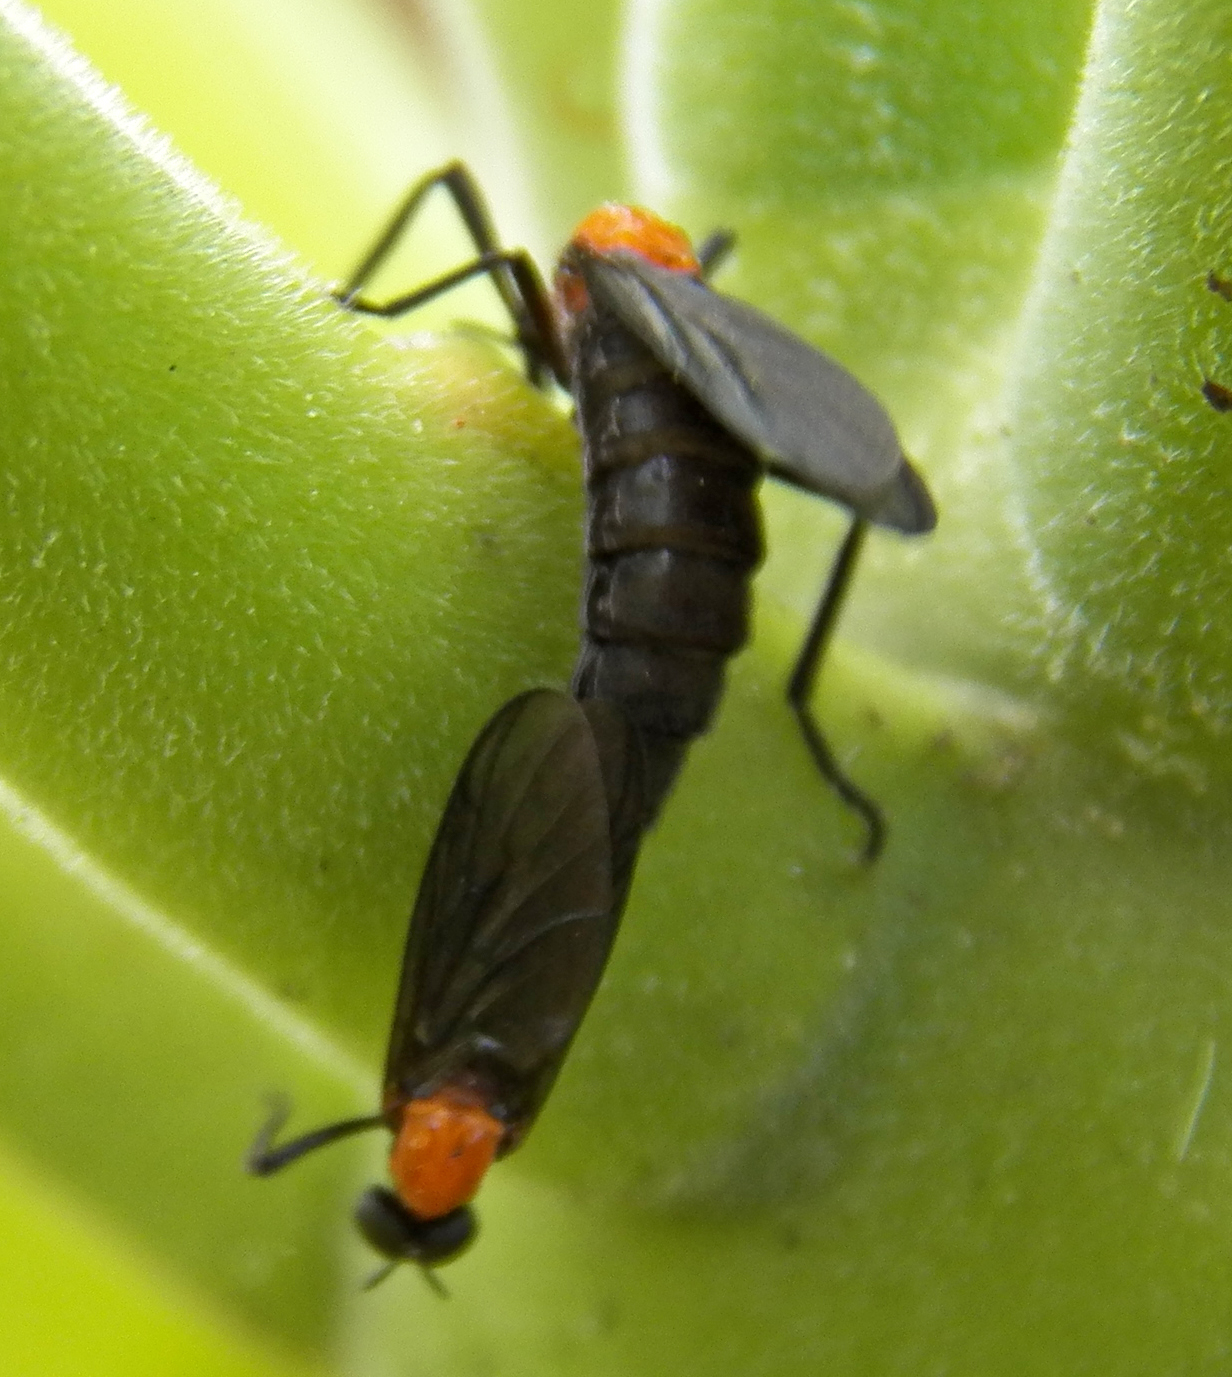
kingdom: Animalia
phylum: Arthropoda
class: Insecta
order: Diptera
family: Bibionidae
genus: Plecia
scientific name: Plecia nearctica
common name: March fly
